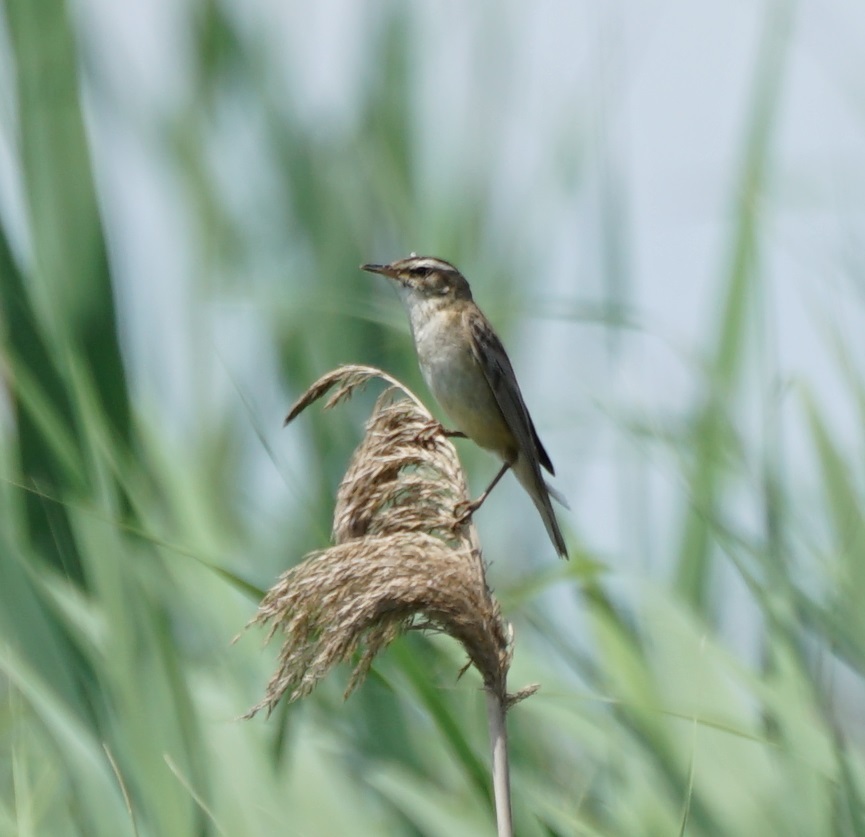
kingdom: Animalia
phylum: Chordata
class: Aves
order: Passeriformes
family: Acrocephalidae
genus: Acrocephalus
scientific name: Acrocephalus schoenobaenus
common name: Sedge warbler
